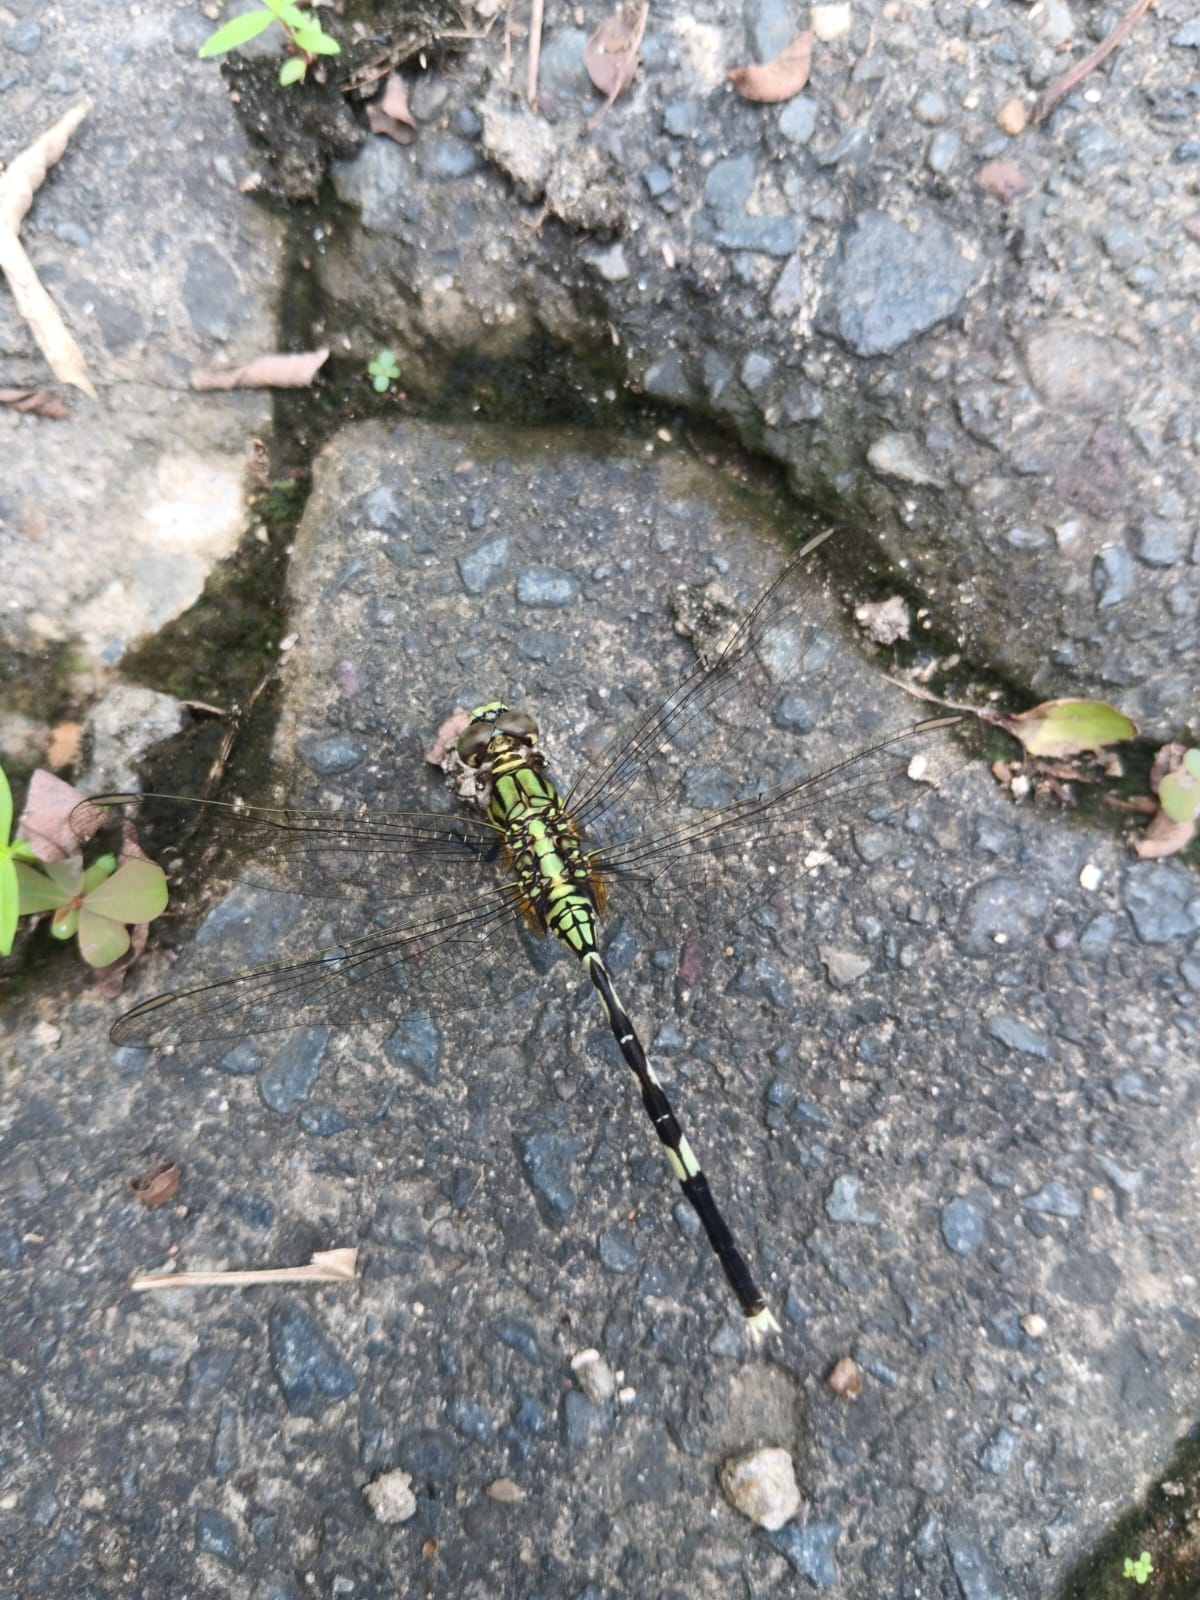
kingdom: Animalia
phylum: Arthropoda
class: Insecta
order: Odonata
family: Libellulidae
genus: Orthetrum
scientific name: Orthetrum sabina
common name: Slender skimmer
